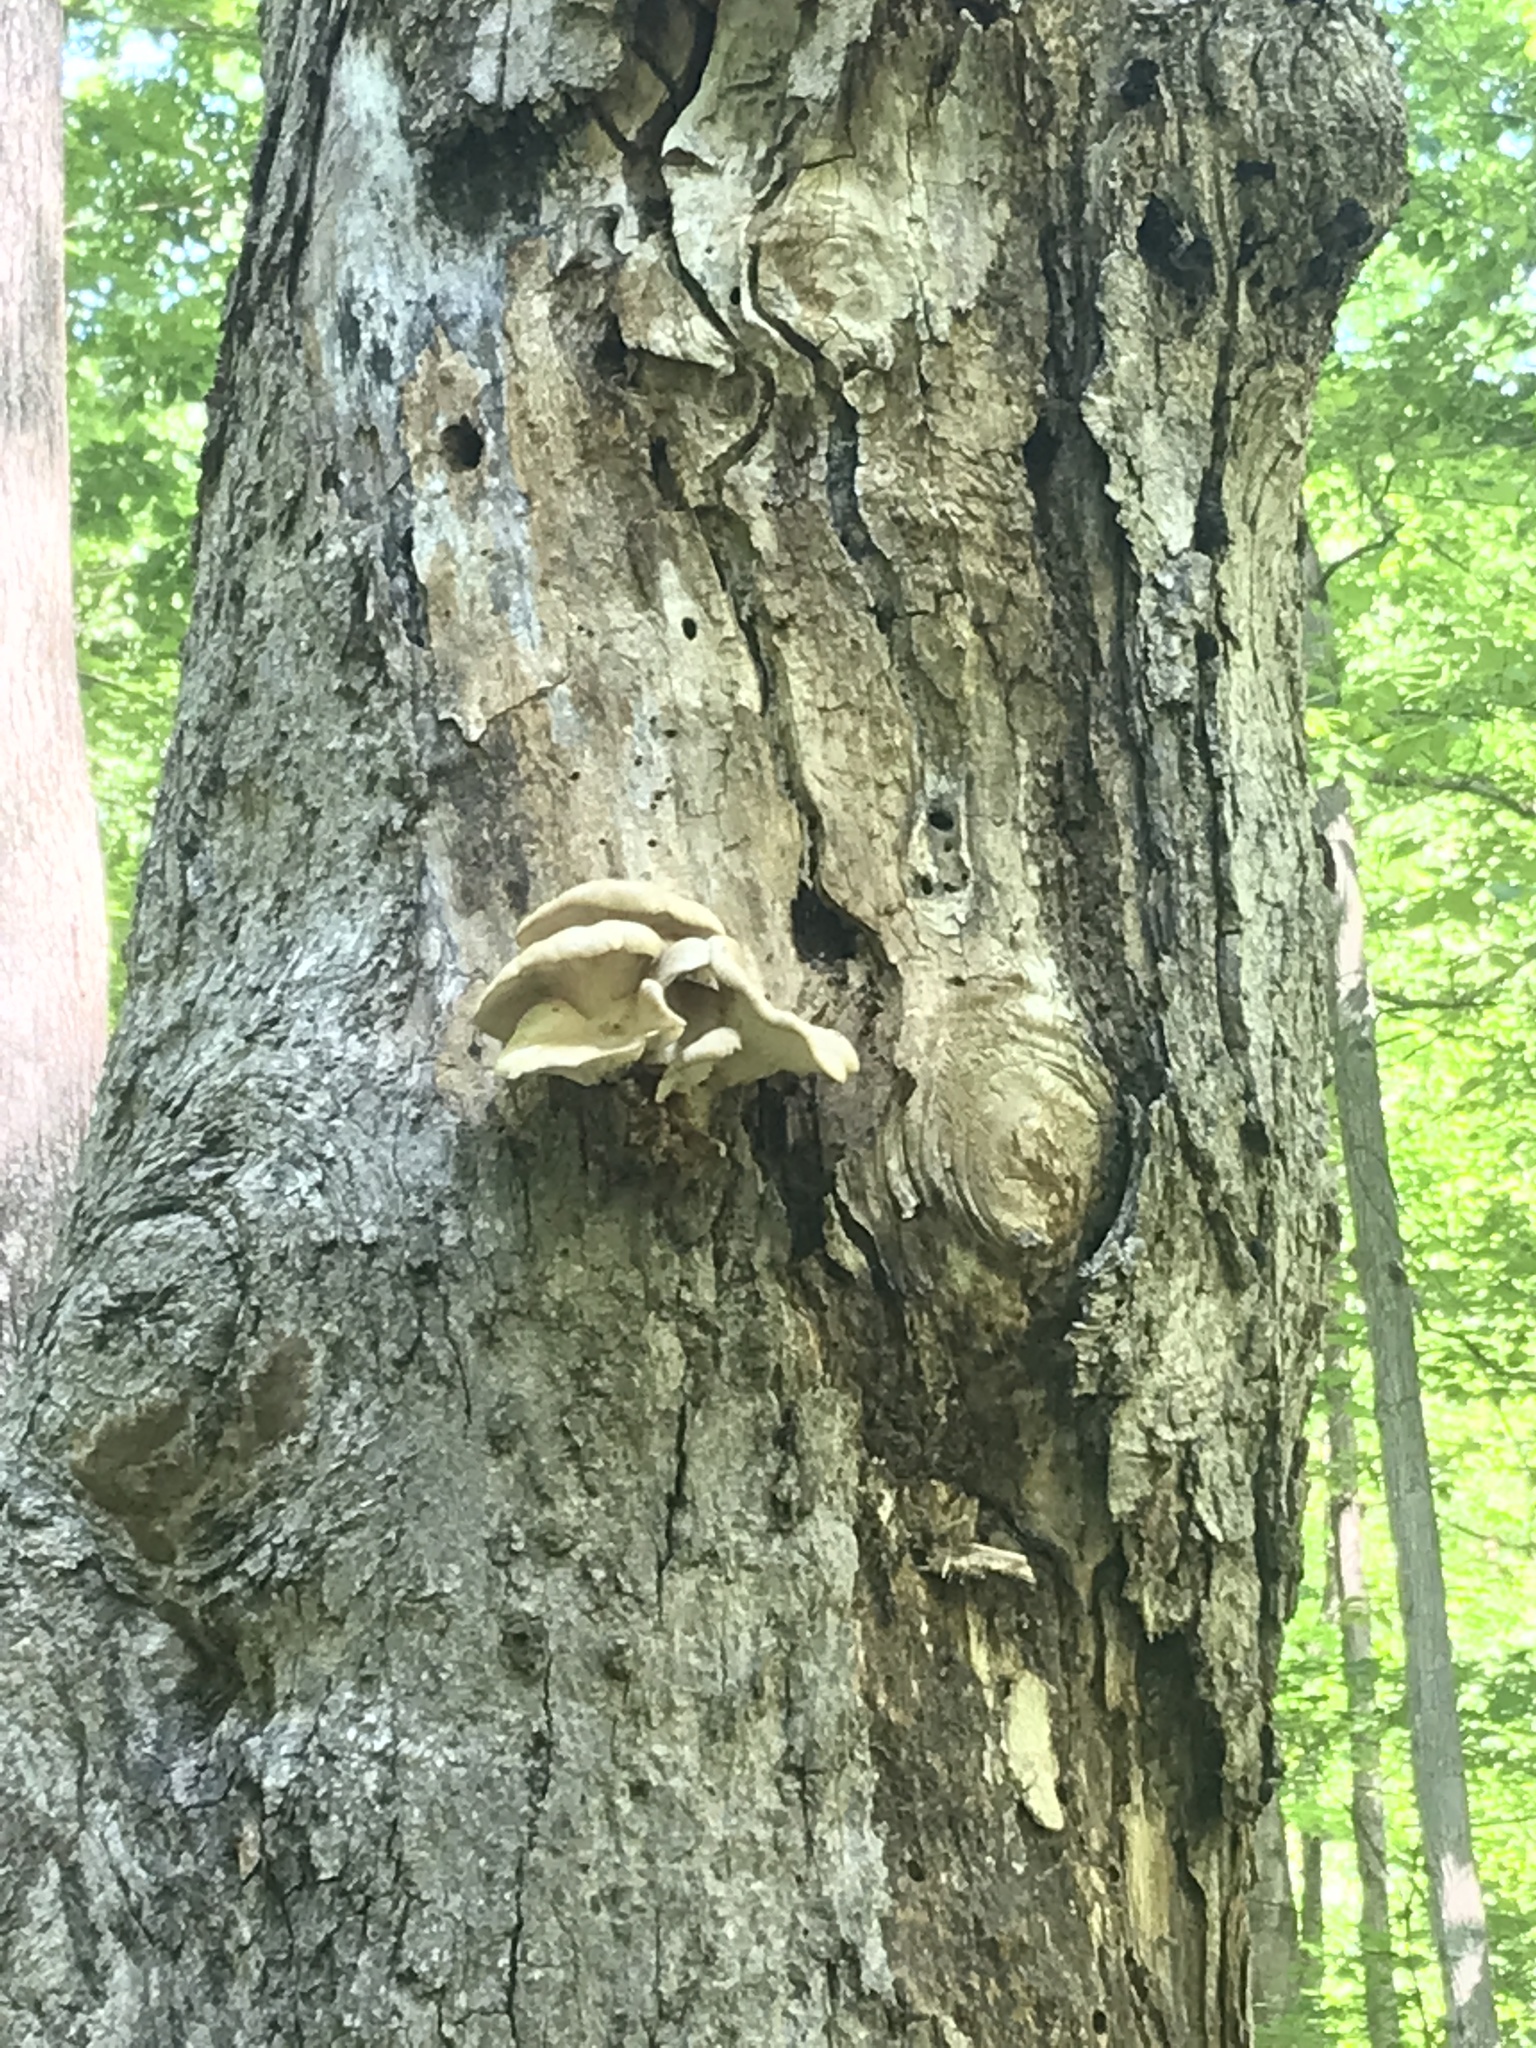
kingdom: Fungi
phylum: Basidiomycota
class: Agaricomycetes
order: Agaricales
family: Pleurotaceae
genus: Pleurotus
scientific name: Pleurotus pulmonarius
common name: Pale oyster
